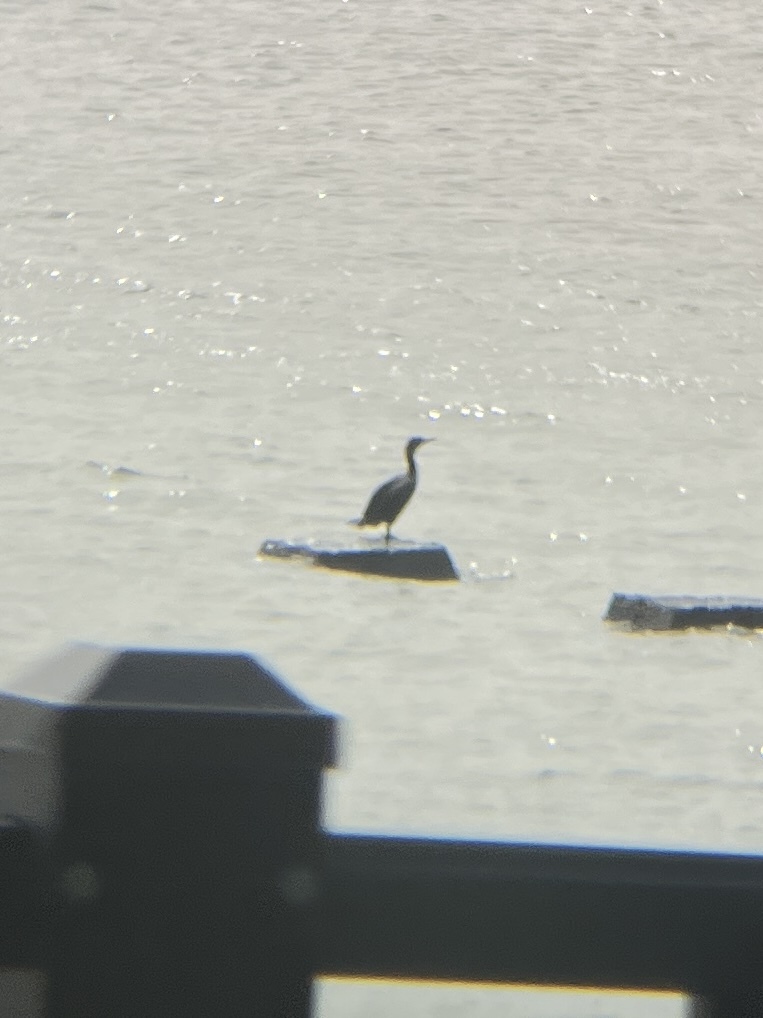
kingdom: Animalia
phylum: Chordata
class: Aves
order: Suliformes
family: Phalacrocoracidae
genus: Phalacrocorax
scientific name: Phalacrocorax auritus
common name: Double-crested cormorant
